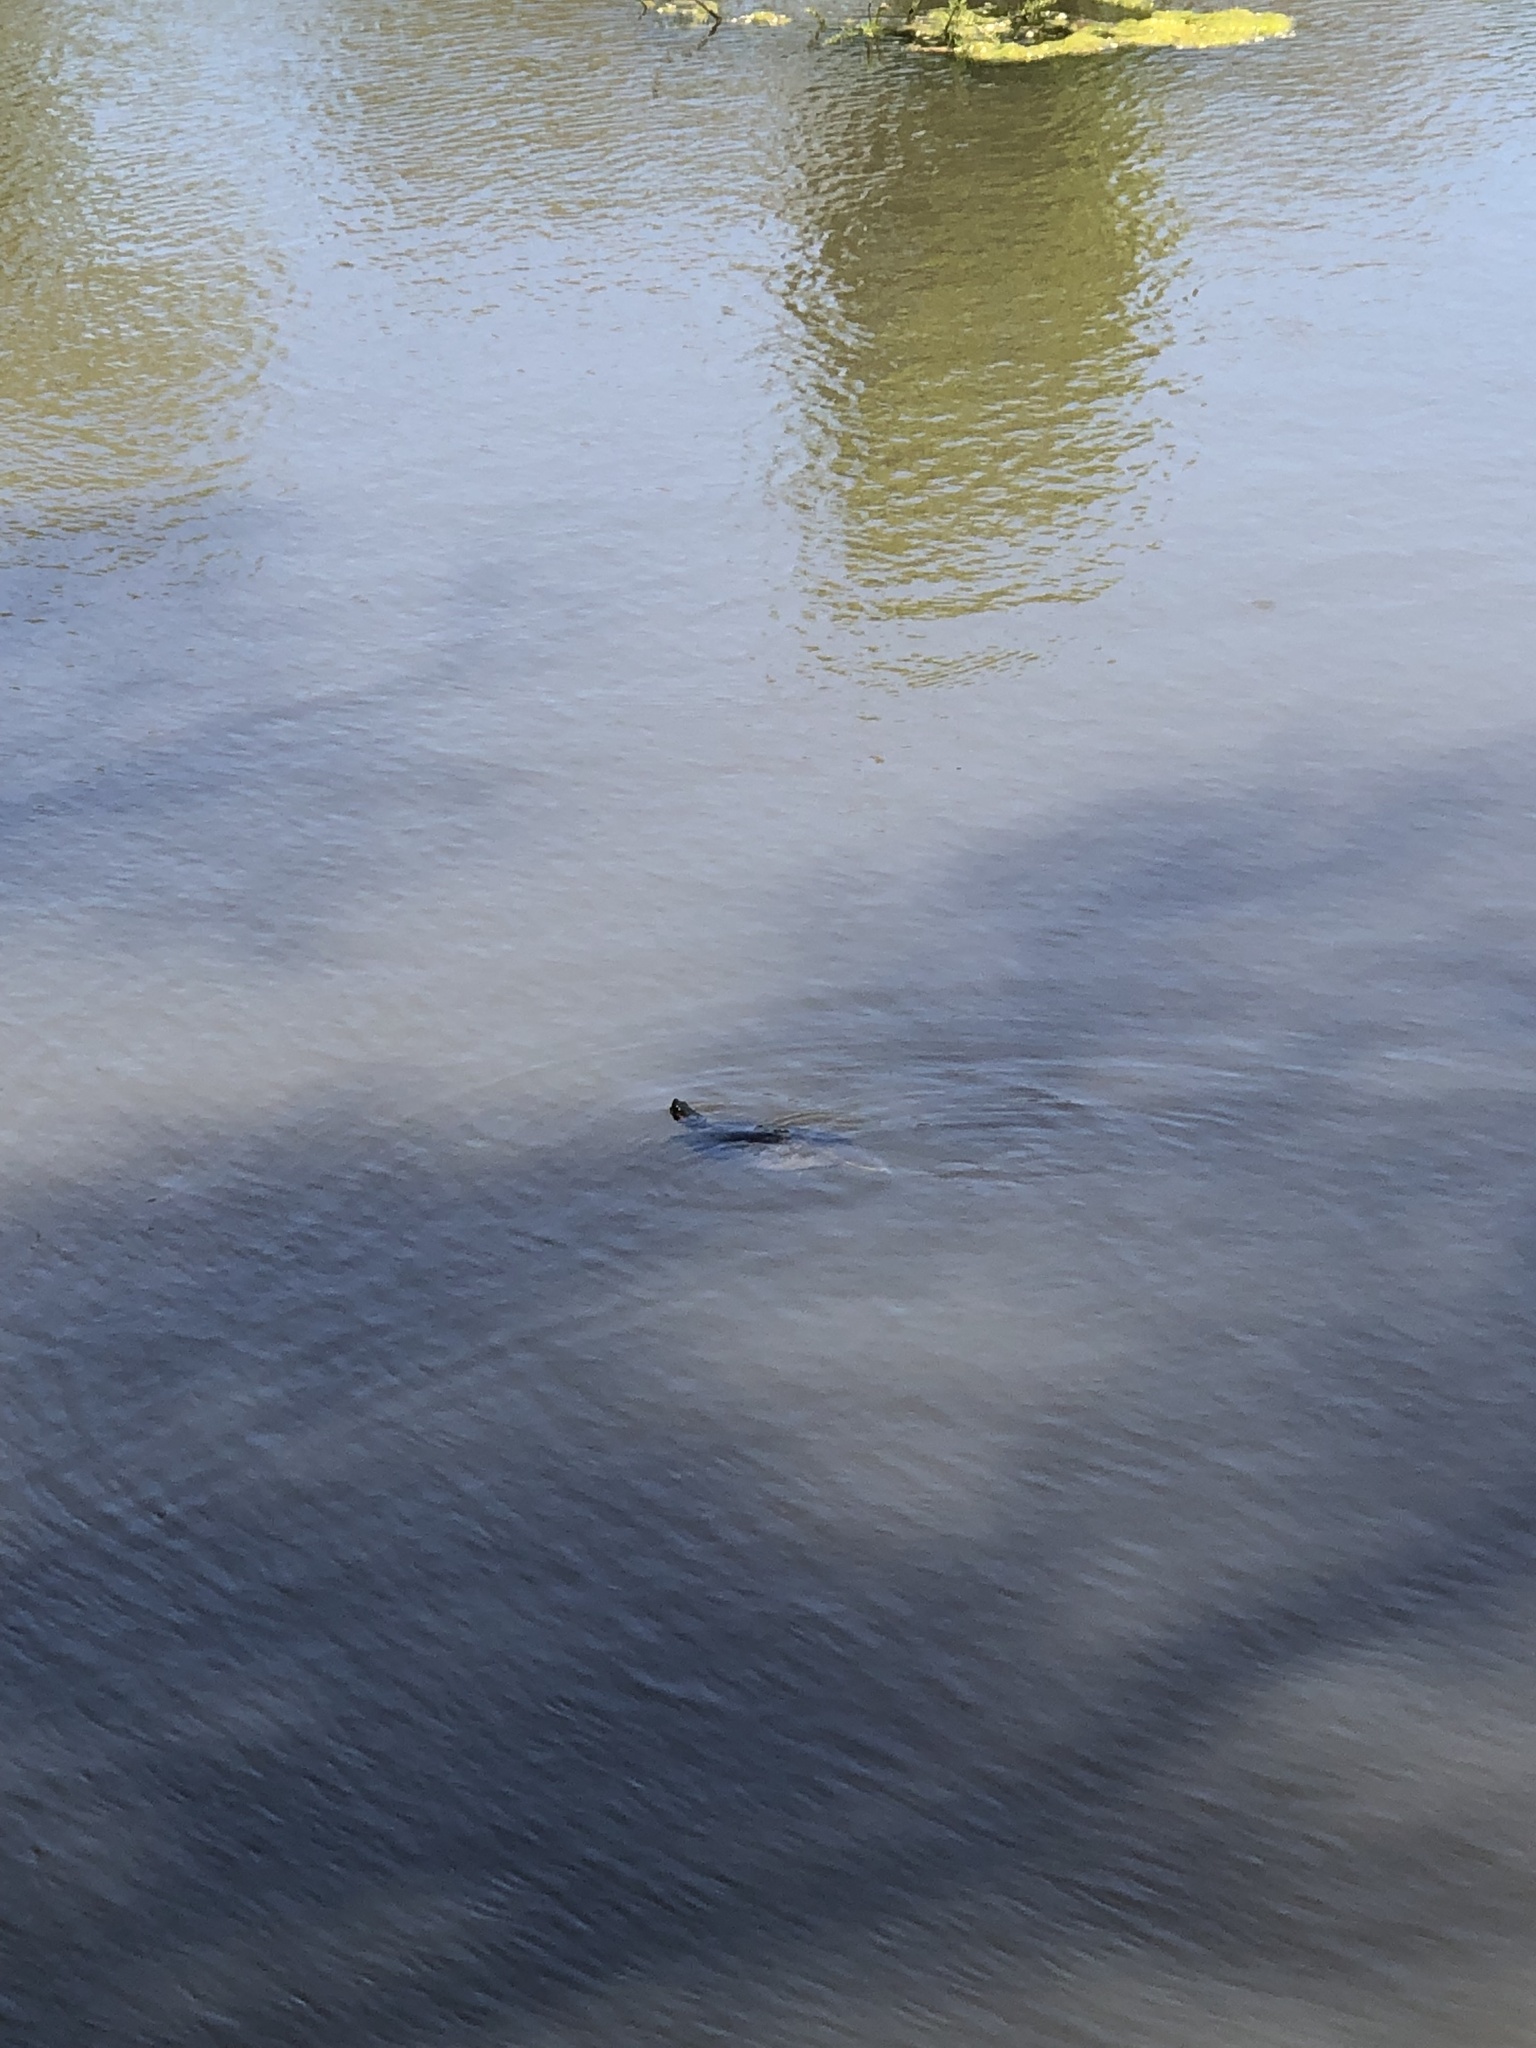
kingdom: Animalia
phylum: Chordata
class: Testudines
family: Emydidae
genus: Trachemys
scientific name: Trachemys scripta
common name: Slider
